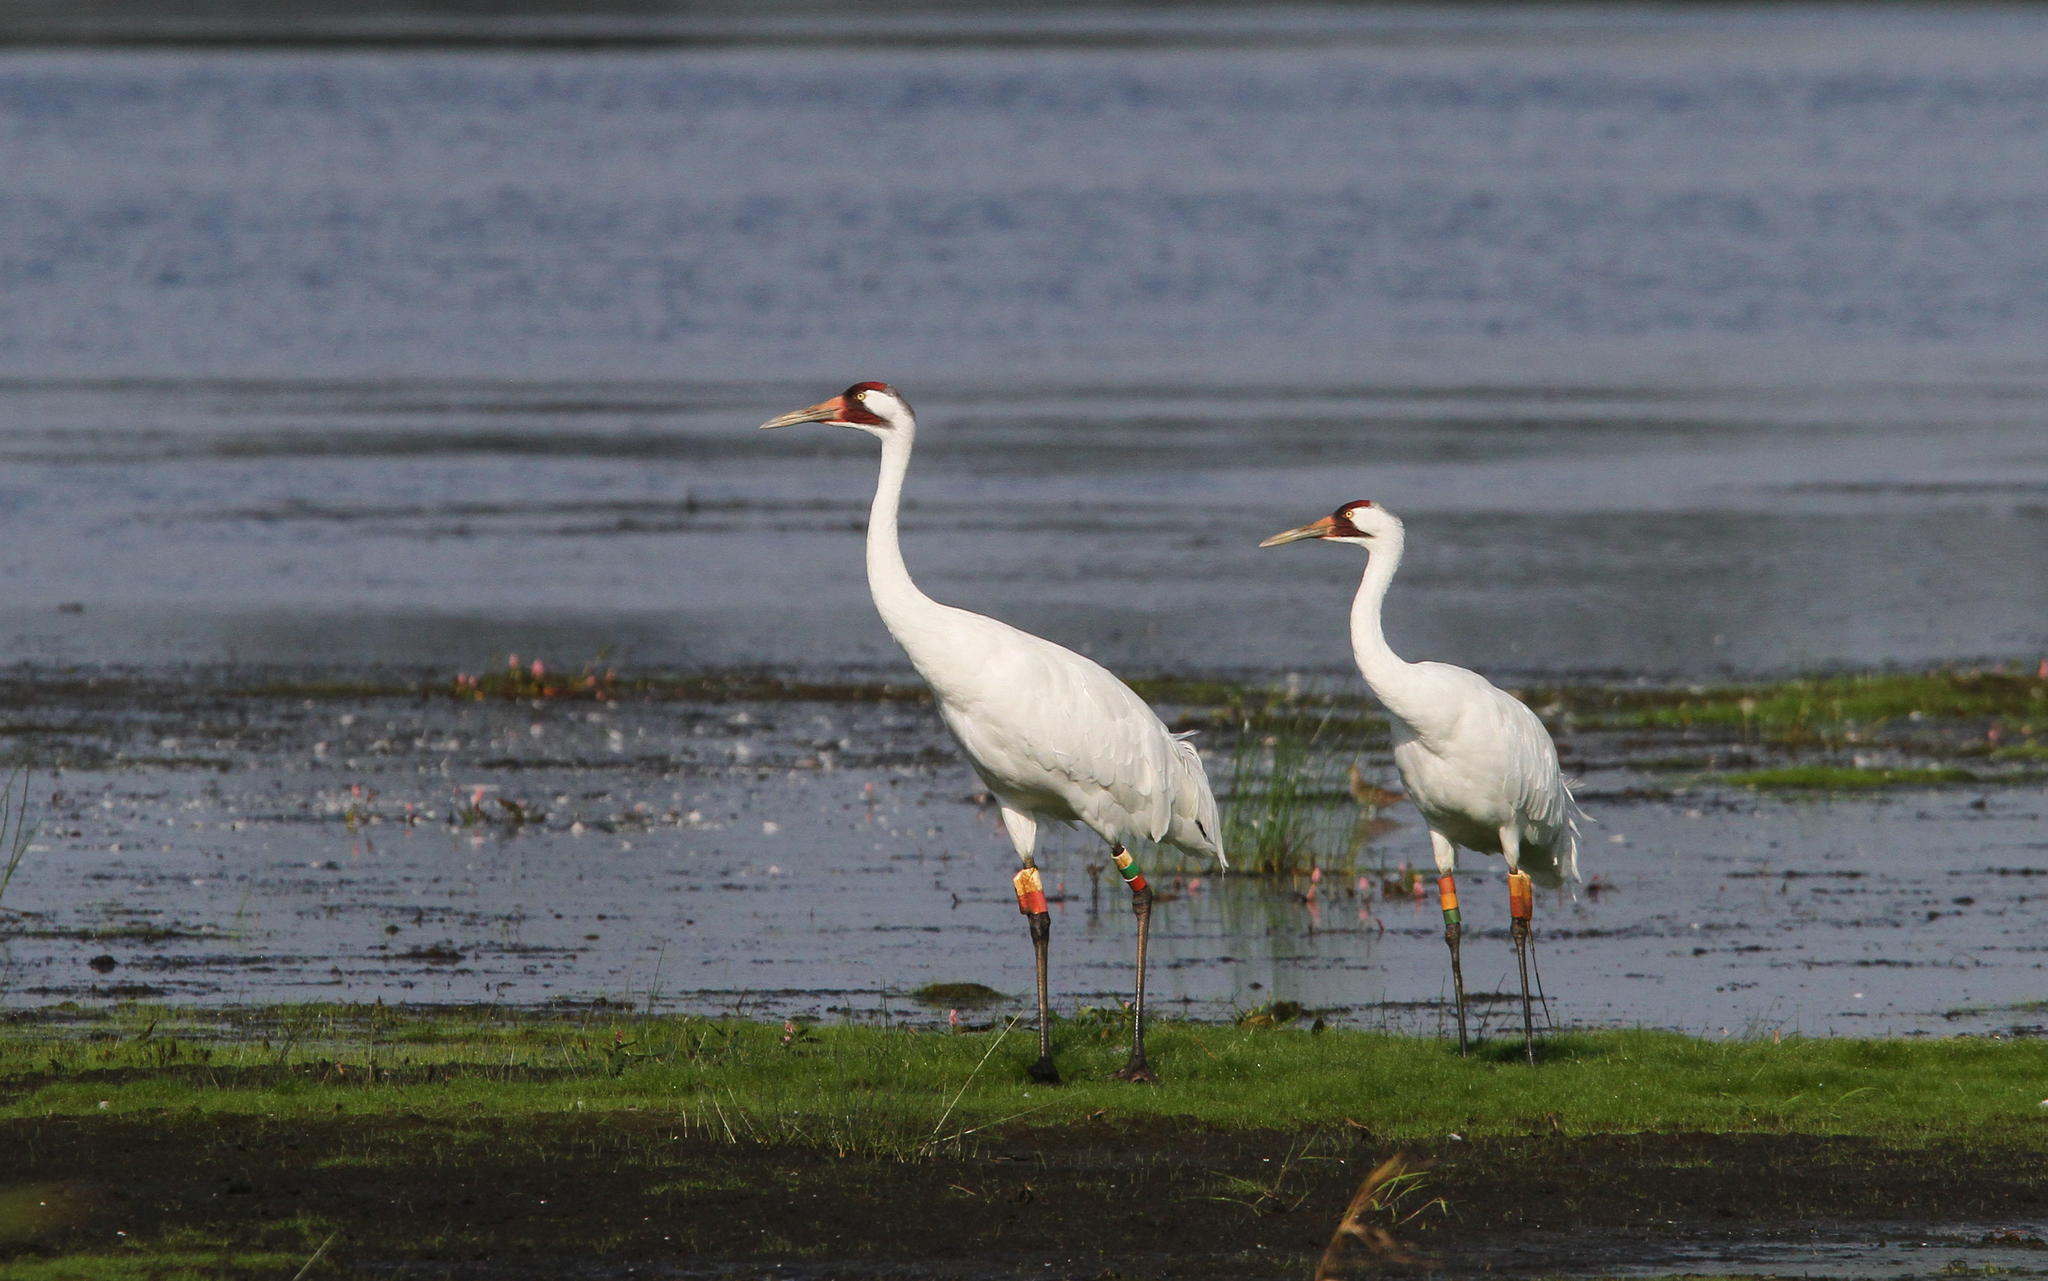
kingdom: Animalia
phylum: Chordata
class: Aves
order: Gruiformes
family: Gruidae
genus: Grus
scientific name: Grus americana
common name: Whooping crane
